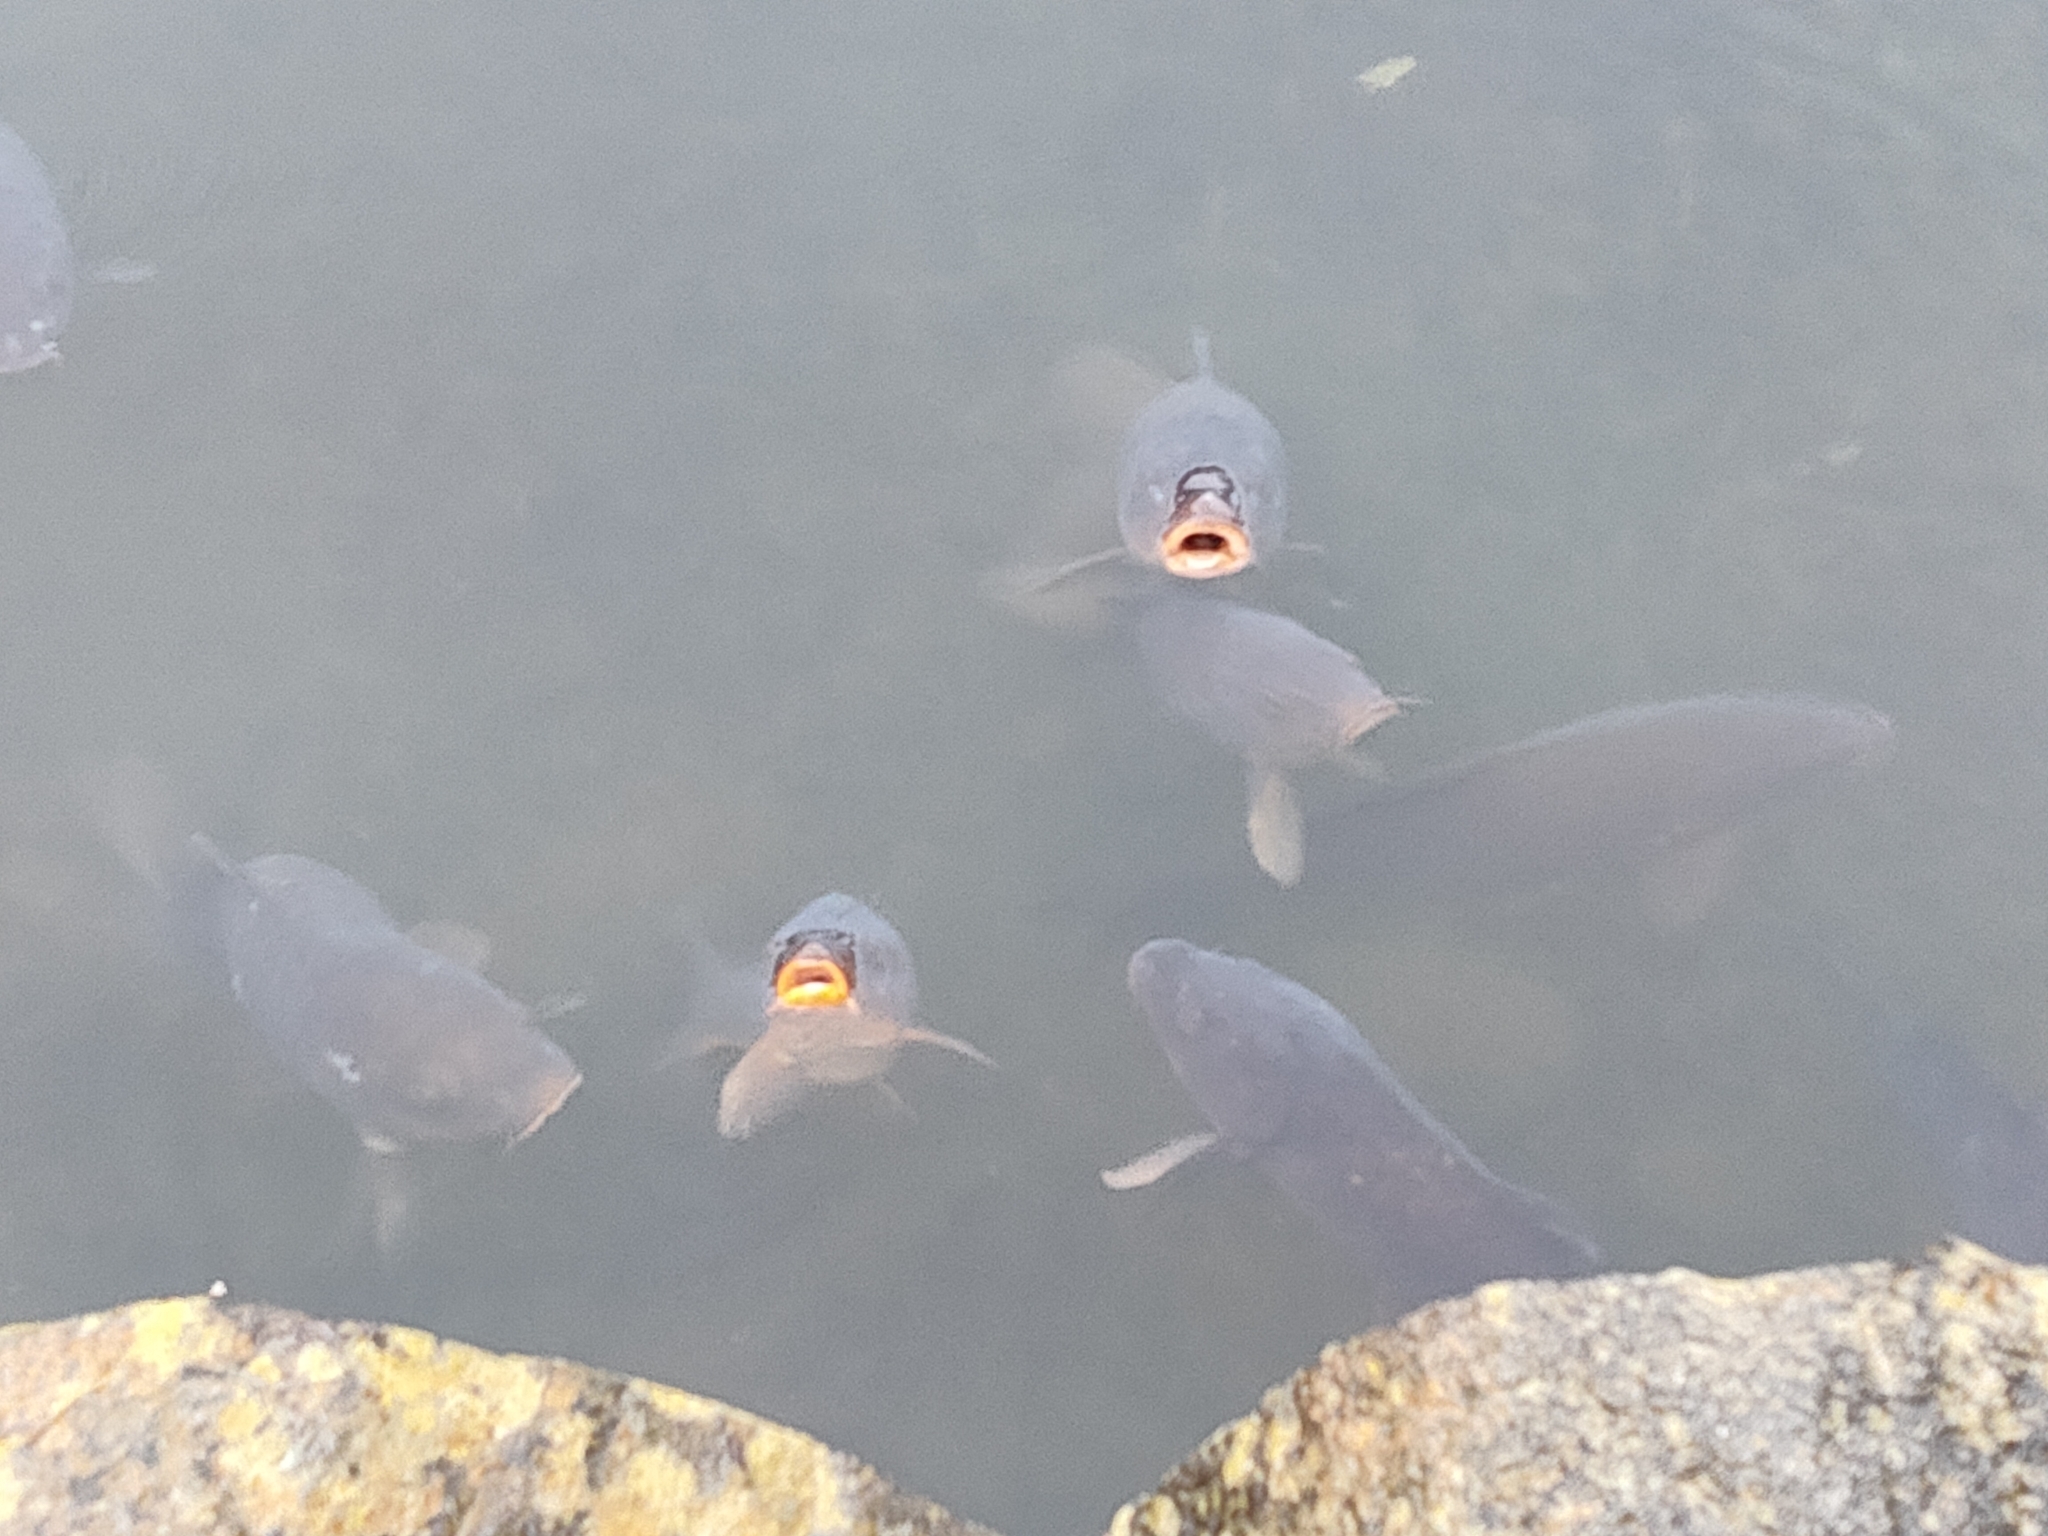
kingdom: Animalia
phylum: Chordata
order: Cypriniformes
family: Cyprinidae
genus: Cyprinus
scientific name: Cyprinus rubrofuscus
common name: Koi
